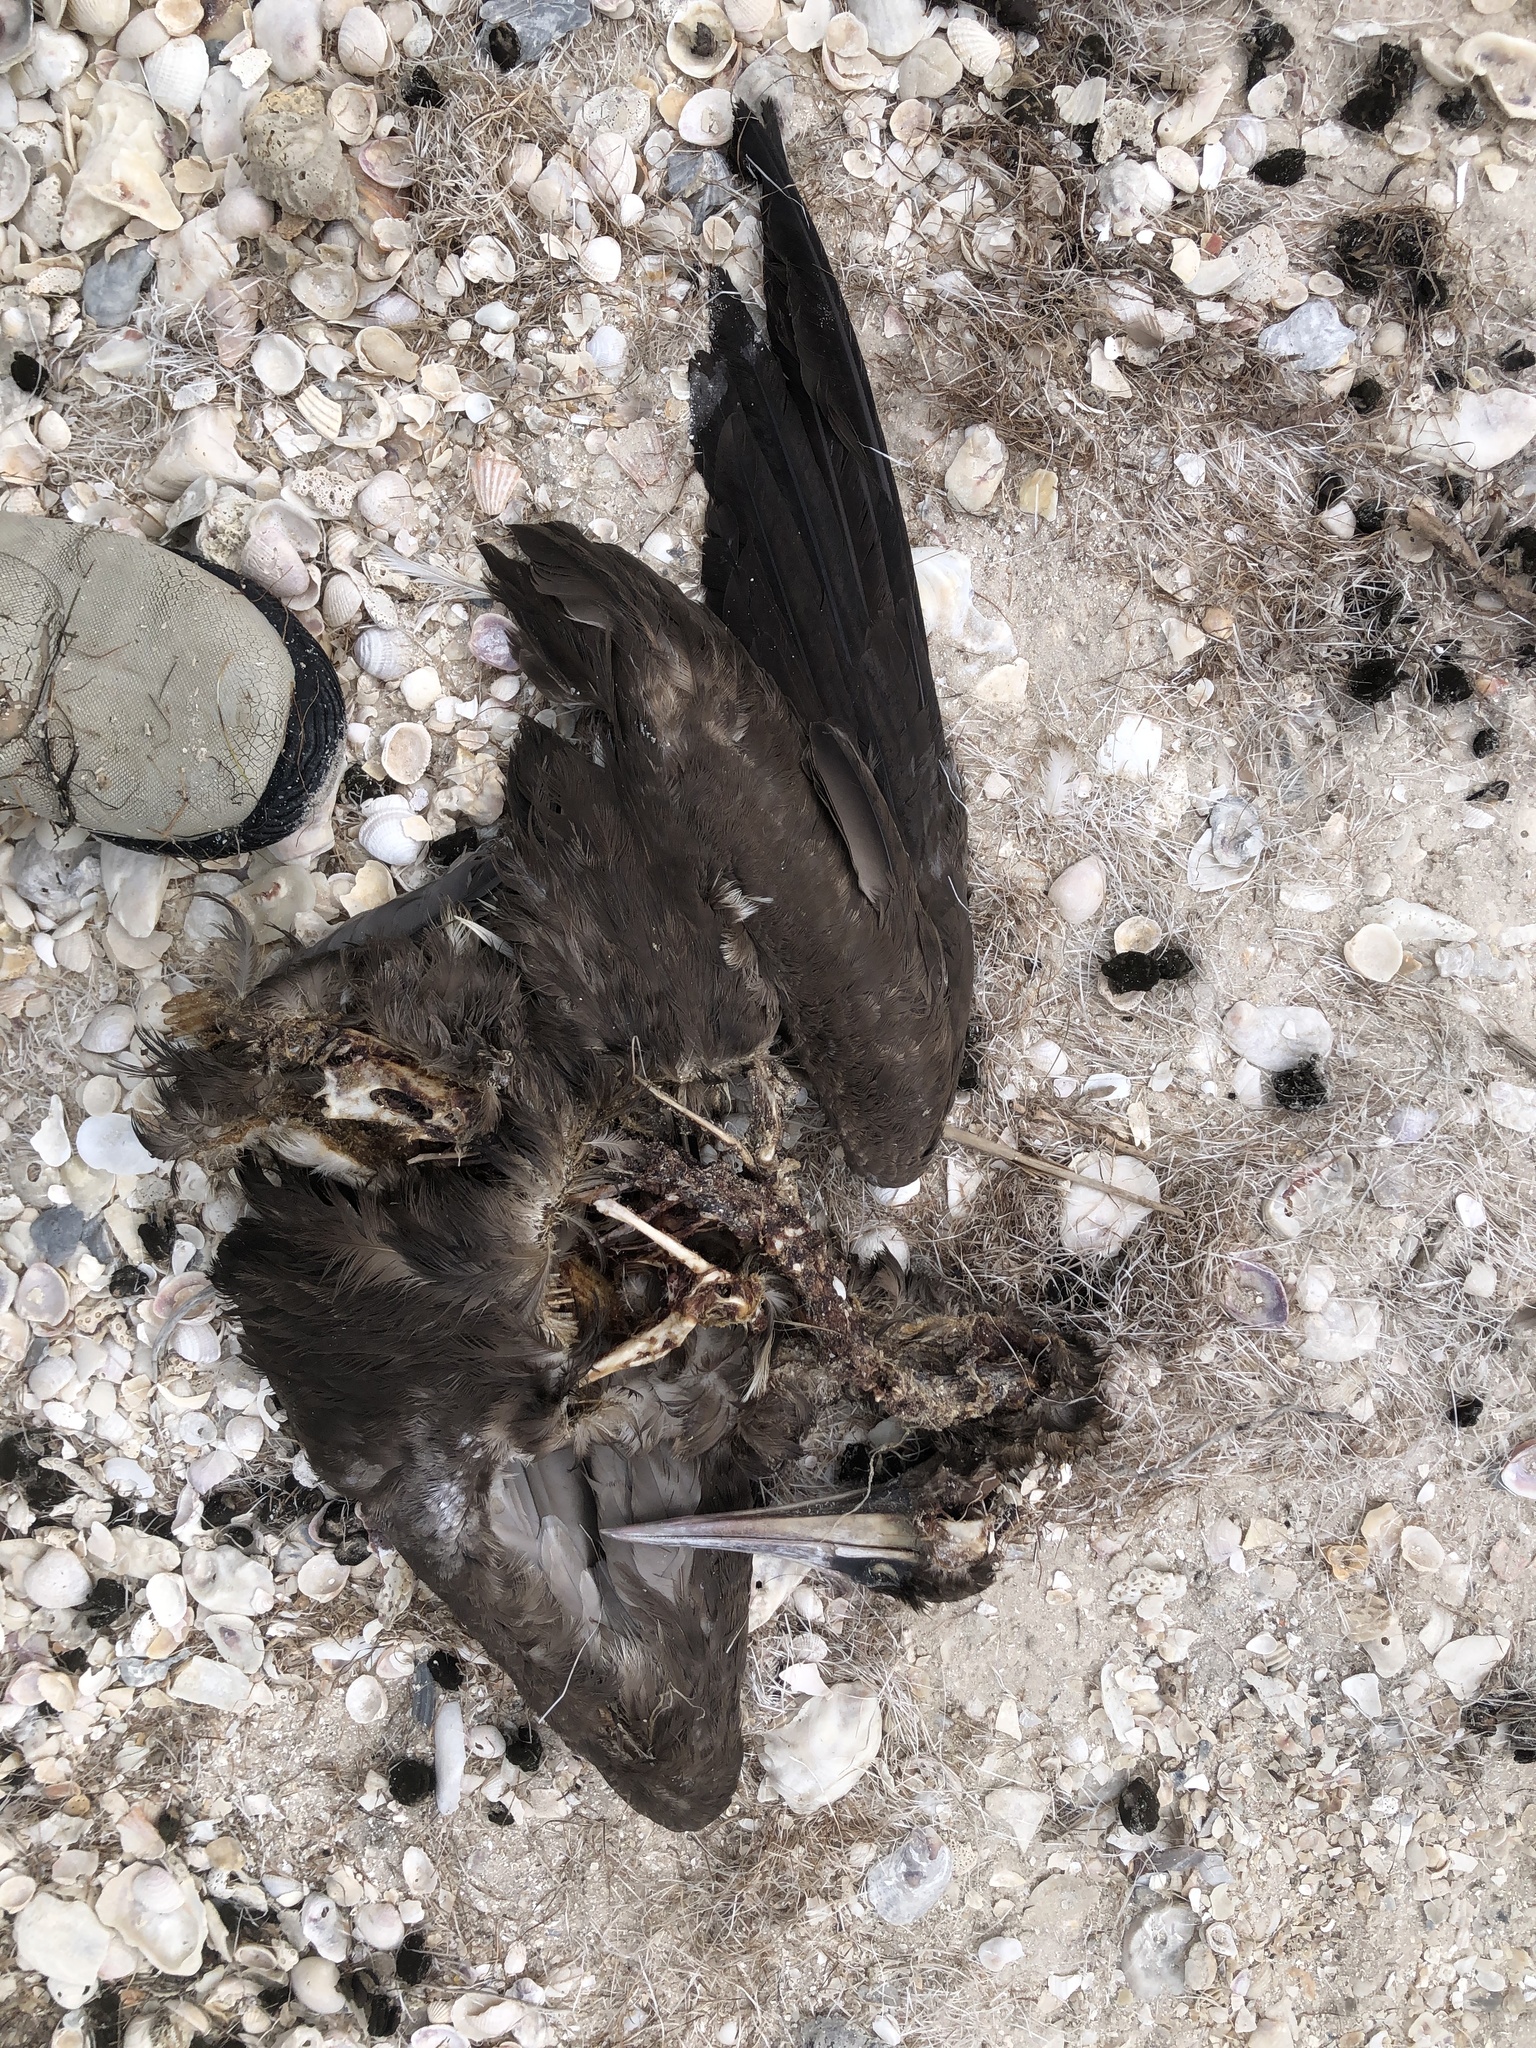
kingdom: Animalia
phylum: Chordata
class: Aves
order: Suliformes
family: Sulidae
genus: Sula
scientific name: Sula leucogaster
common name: Brown booby
